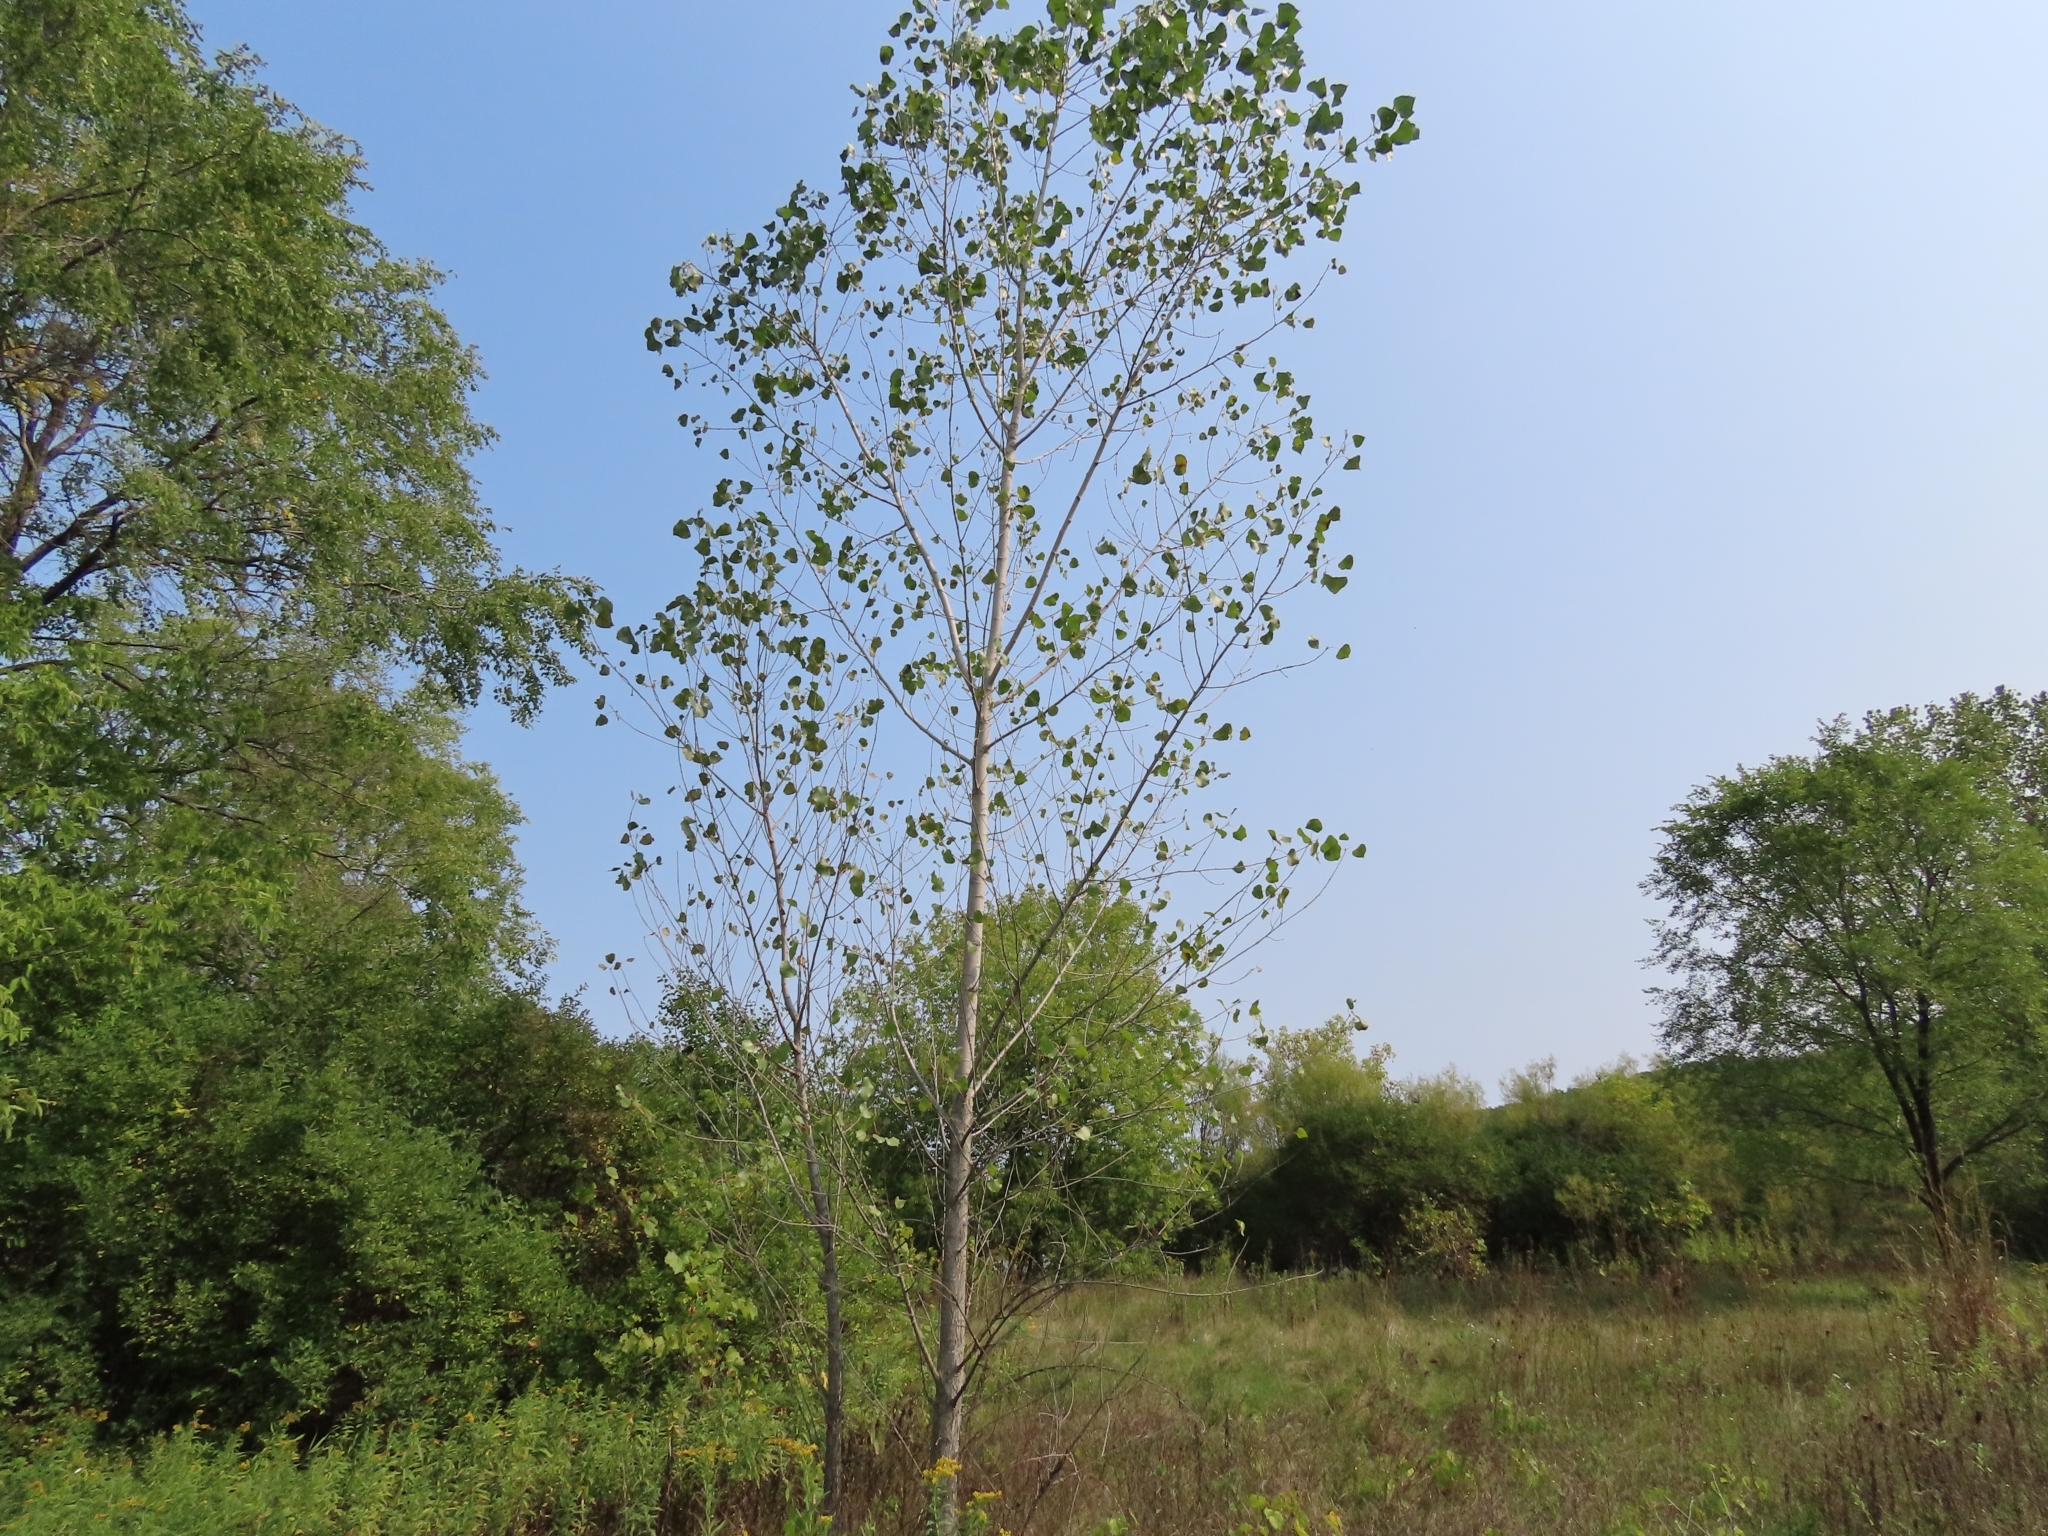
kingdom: Plantae
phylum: Tracheophyta
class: Magnoliopsida
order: Malpighiales
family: Salicaceae
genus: Populus
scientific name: Populus deltoides
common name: Eastern cottonwood
